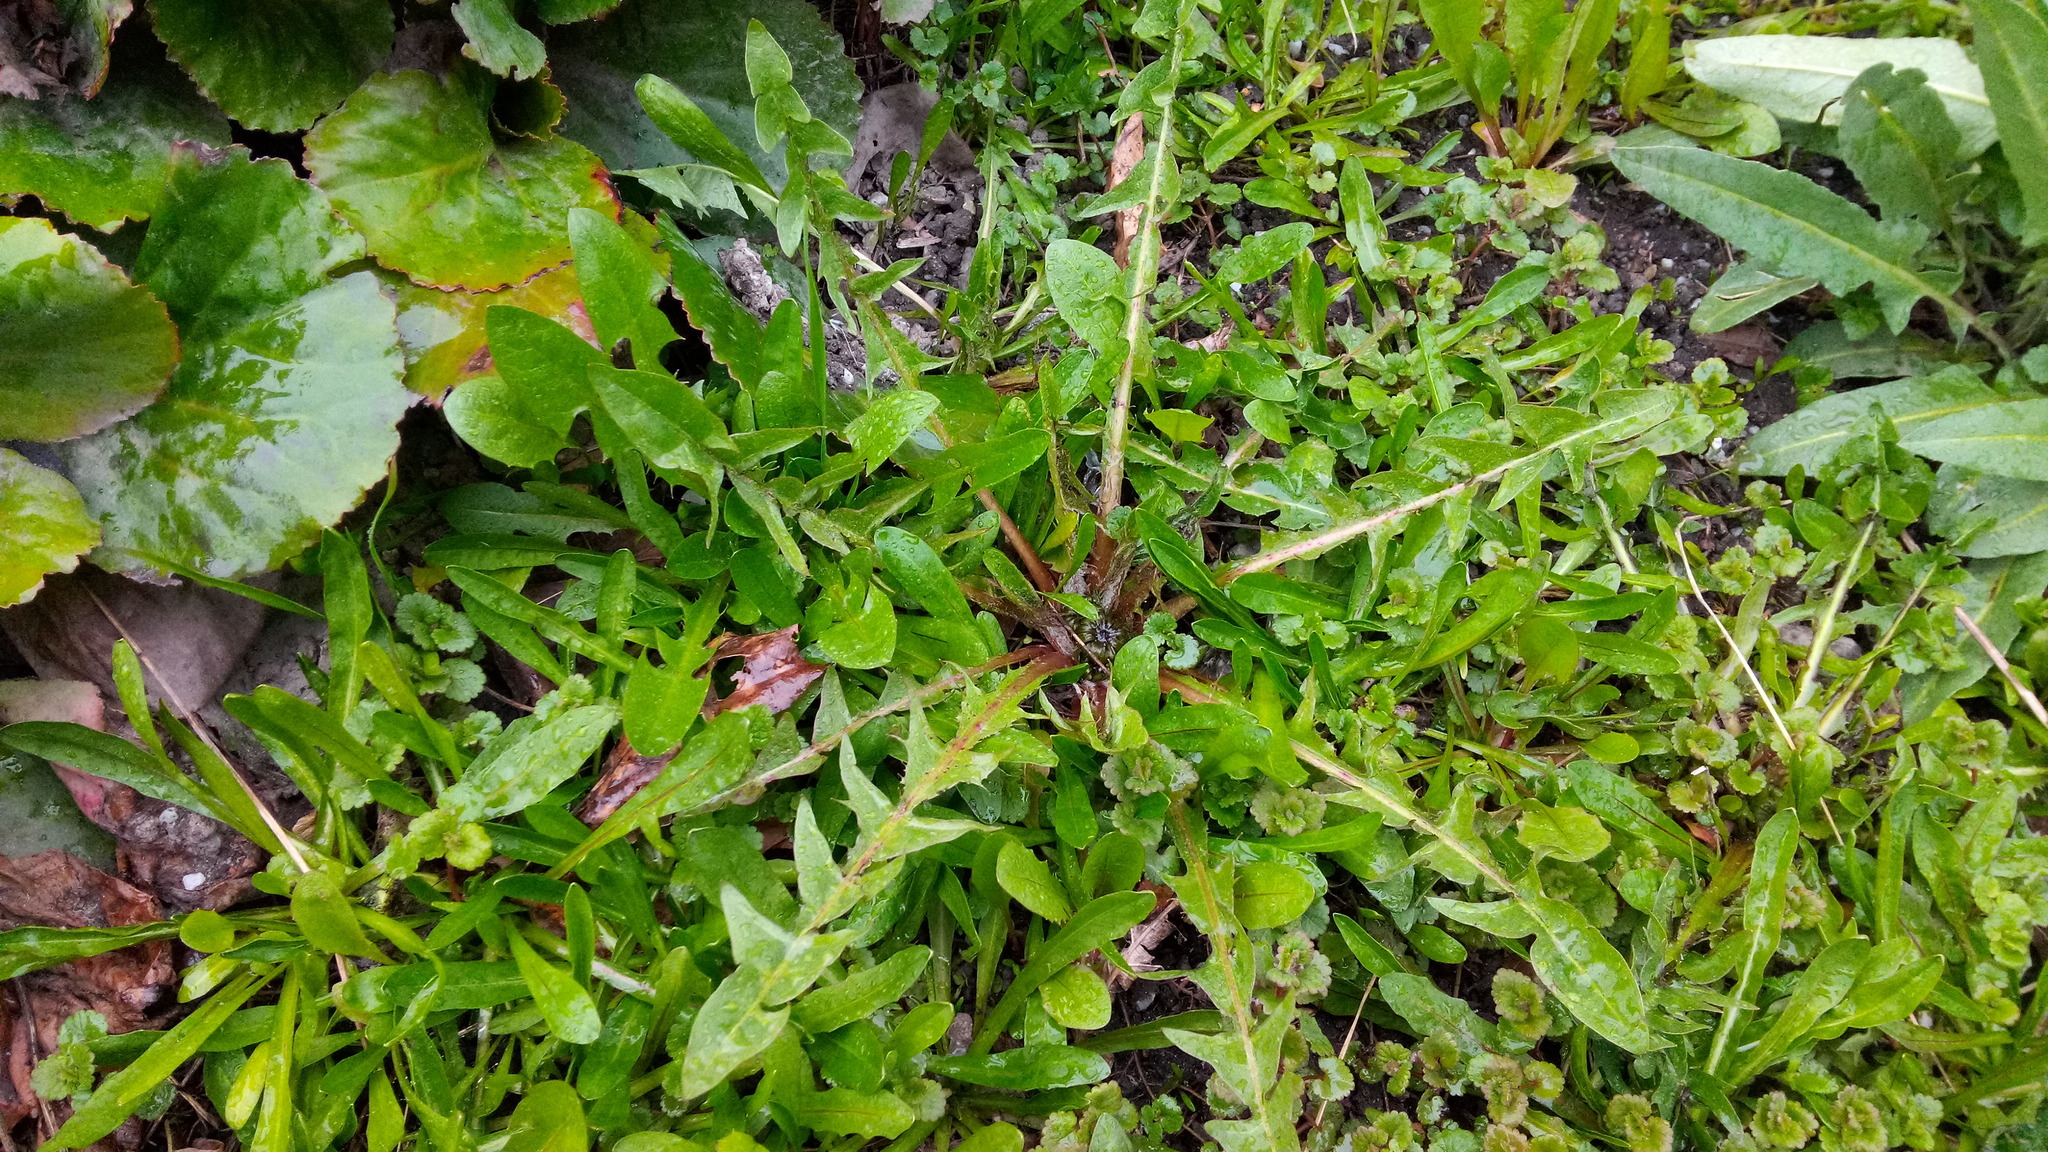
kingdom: Plantae
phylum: Tracheophyta
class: Magnoliopsida
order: Asterales
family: Asteraceae
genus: Taraxacum
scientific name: Taraxacum officinale
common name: Common dandelion
